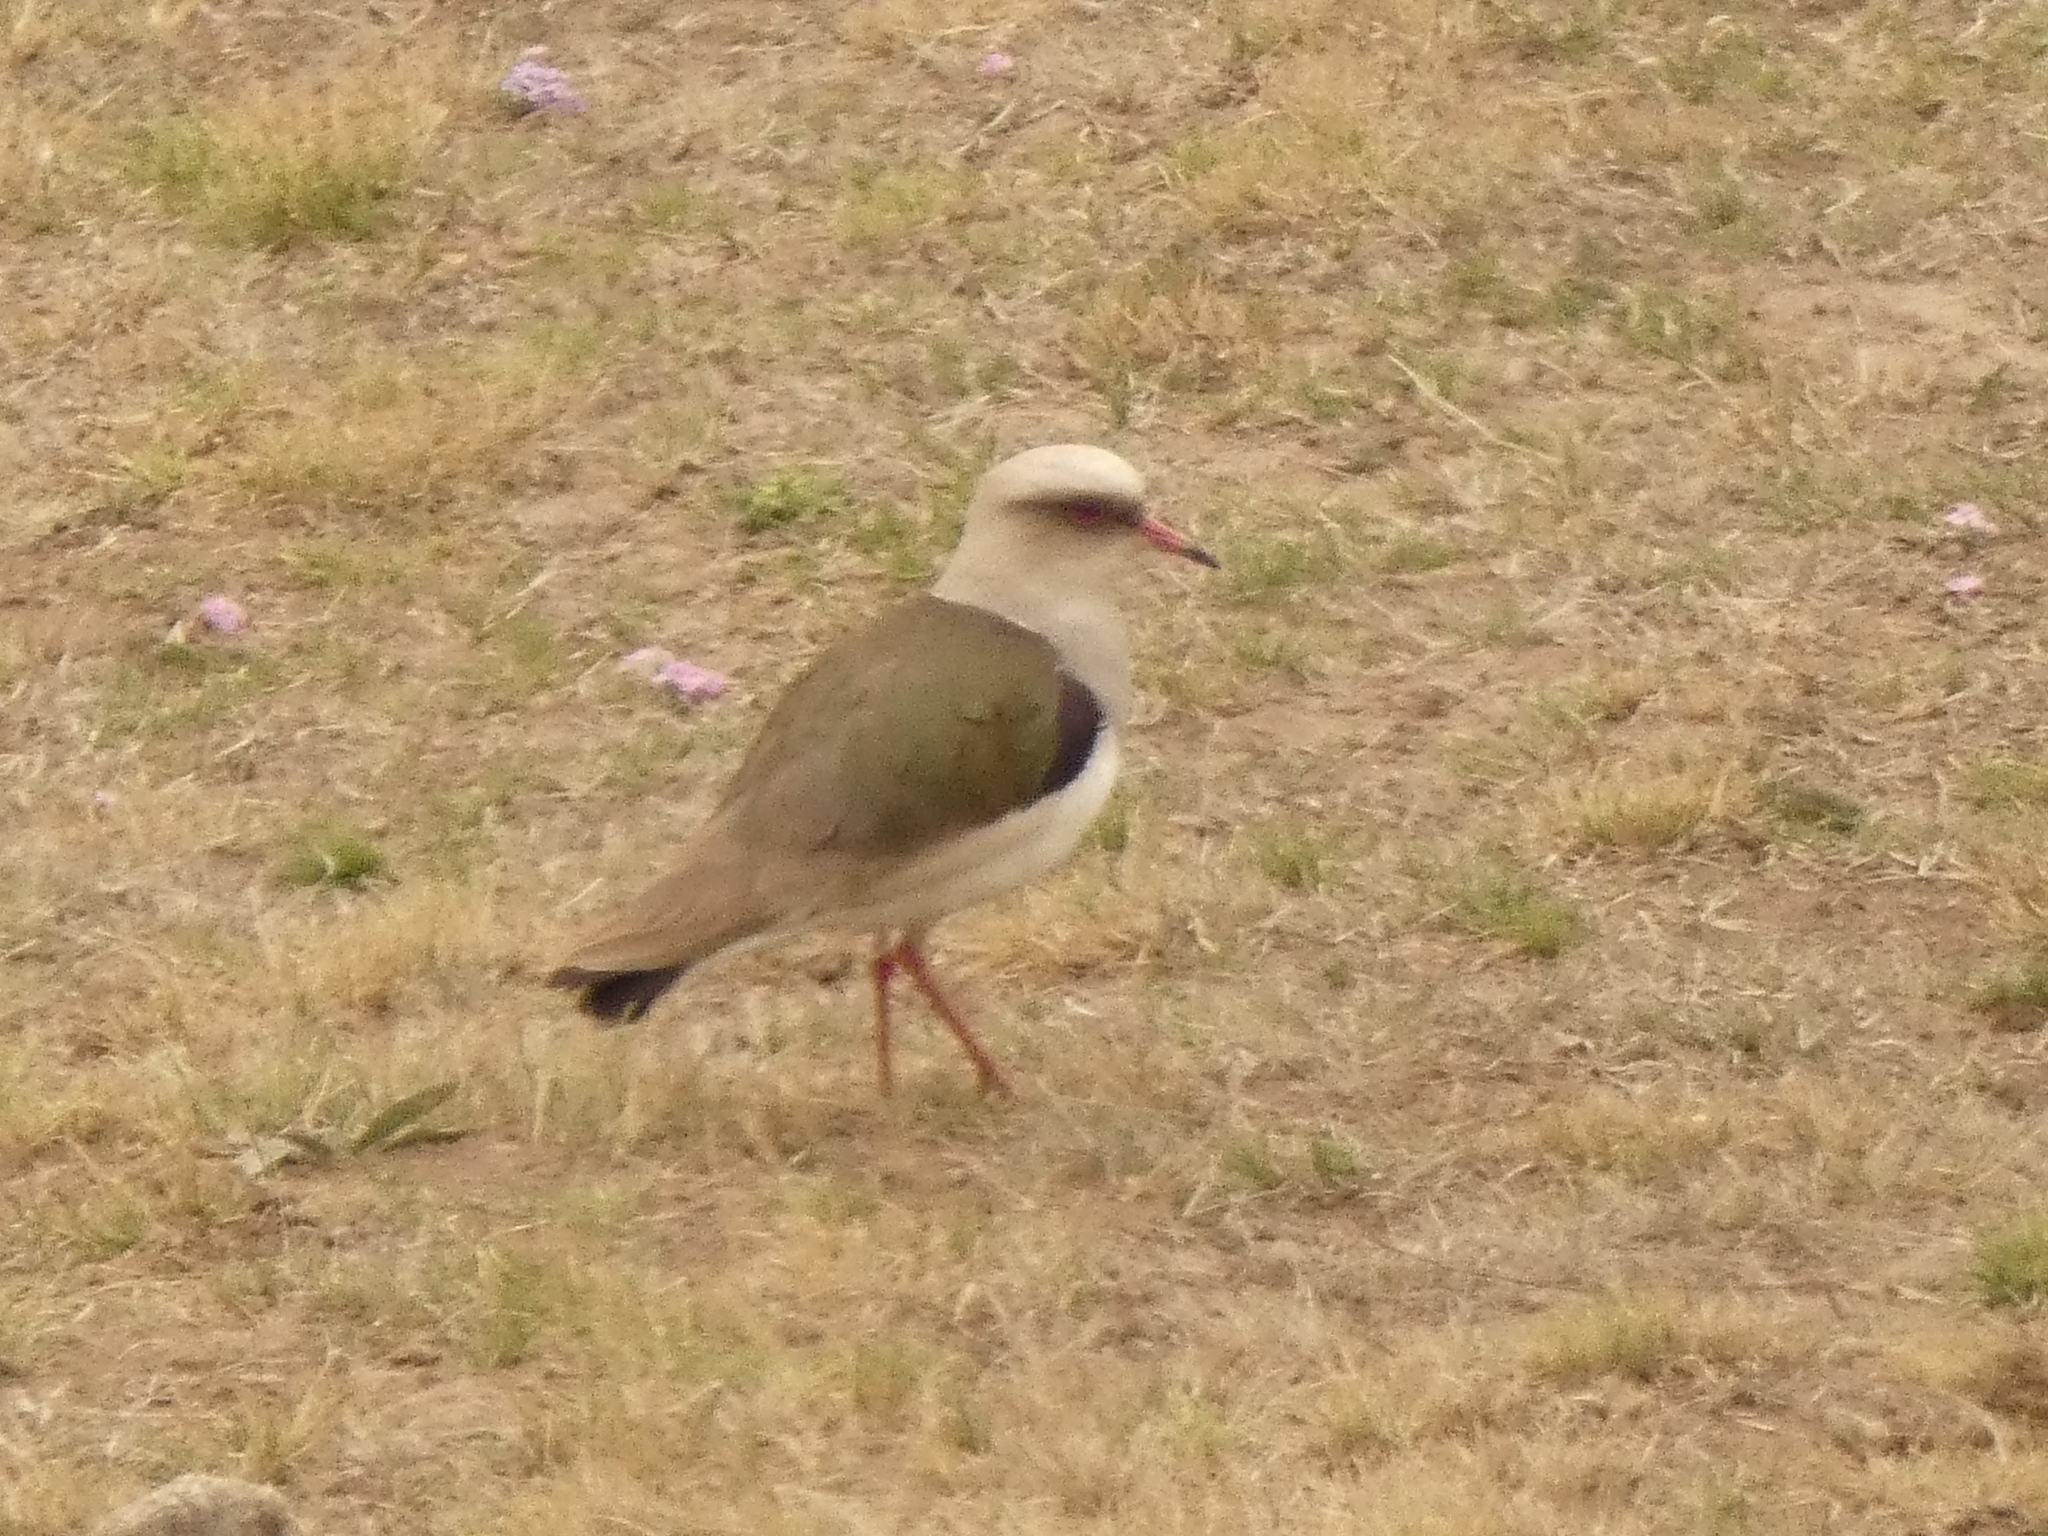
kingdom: Animalia
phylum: Chordata
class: Aves
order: Charadriiformes
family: Charadriidae
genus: Vanellus
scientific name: Vanellus resplendens
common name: Andean lapwing
